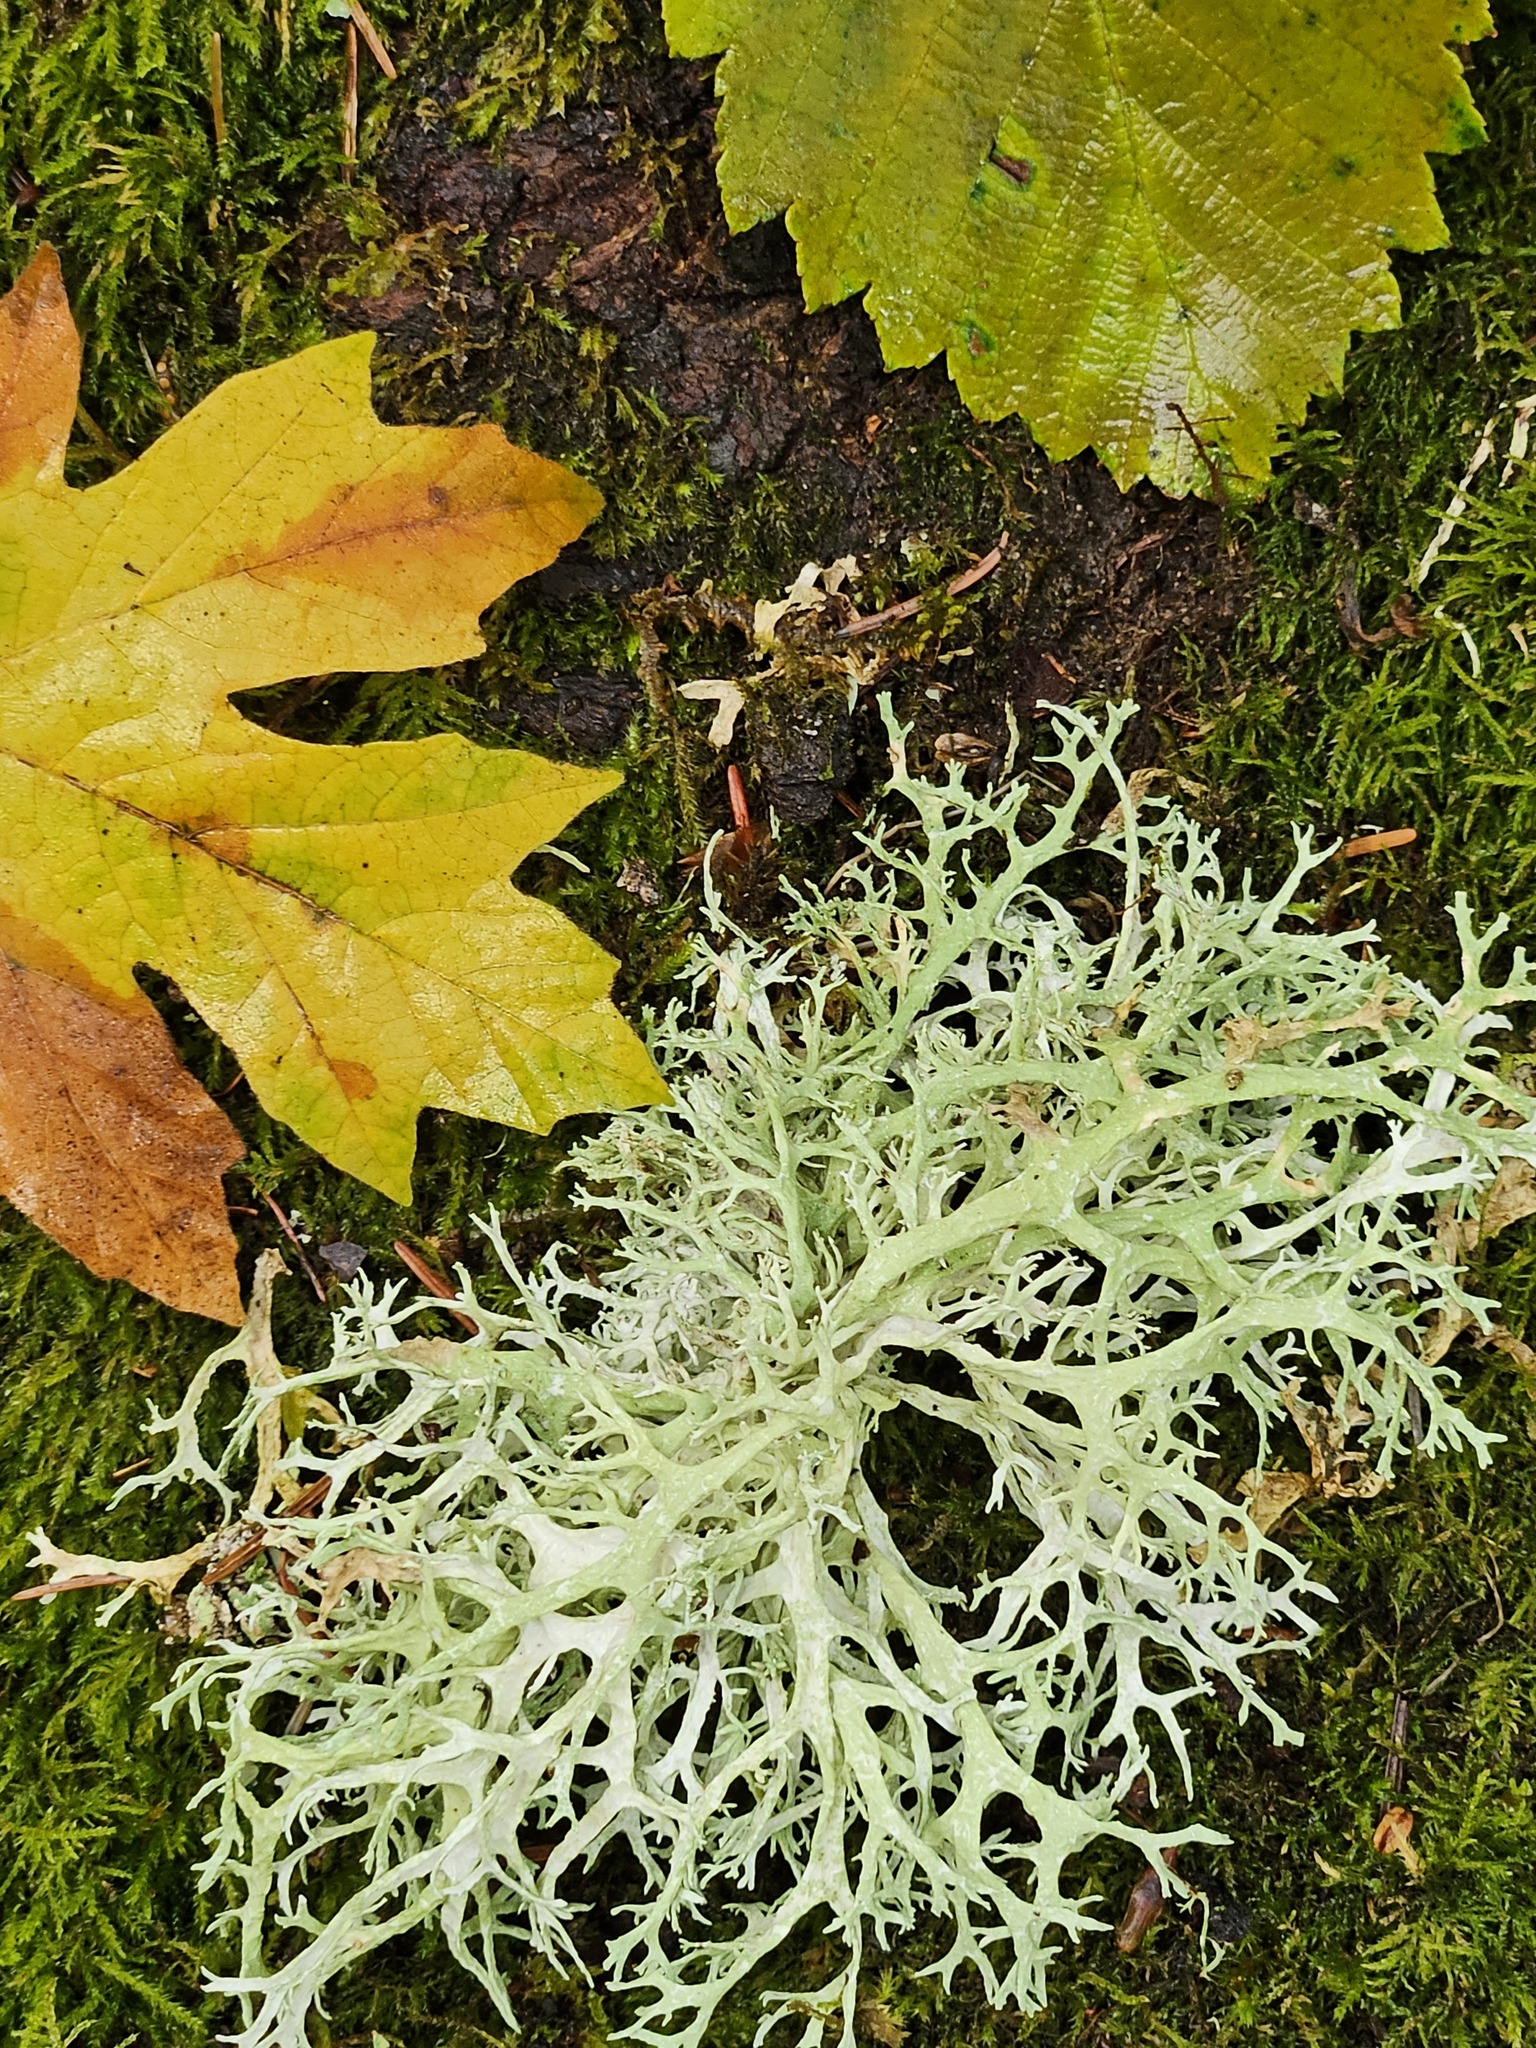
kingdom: Fungi
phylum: Ascomycota
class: Lecanoromycetes
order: Lecanorales
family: Parmeliaceae
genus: Evernia
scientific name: Evernia prunastri
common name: Oak moss
